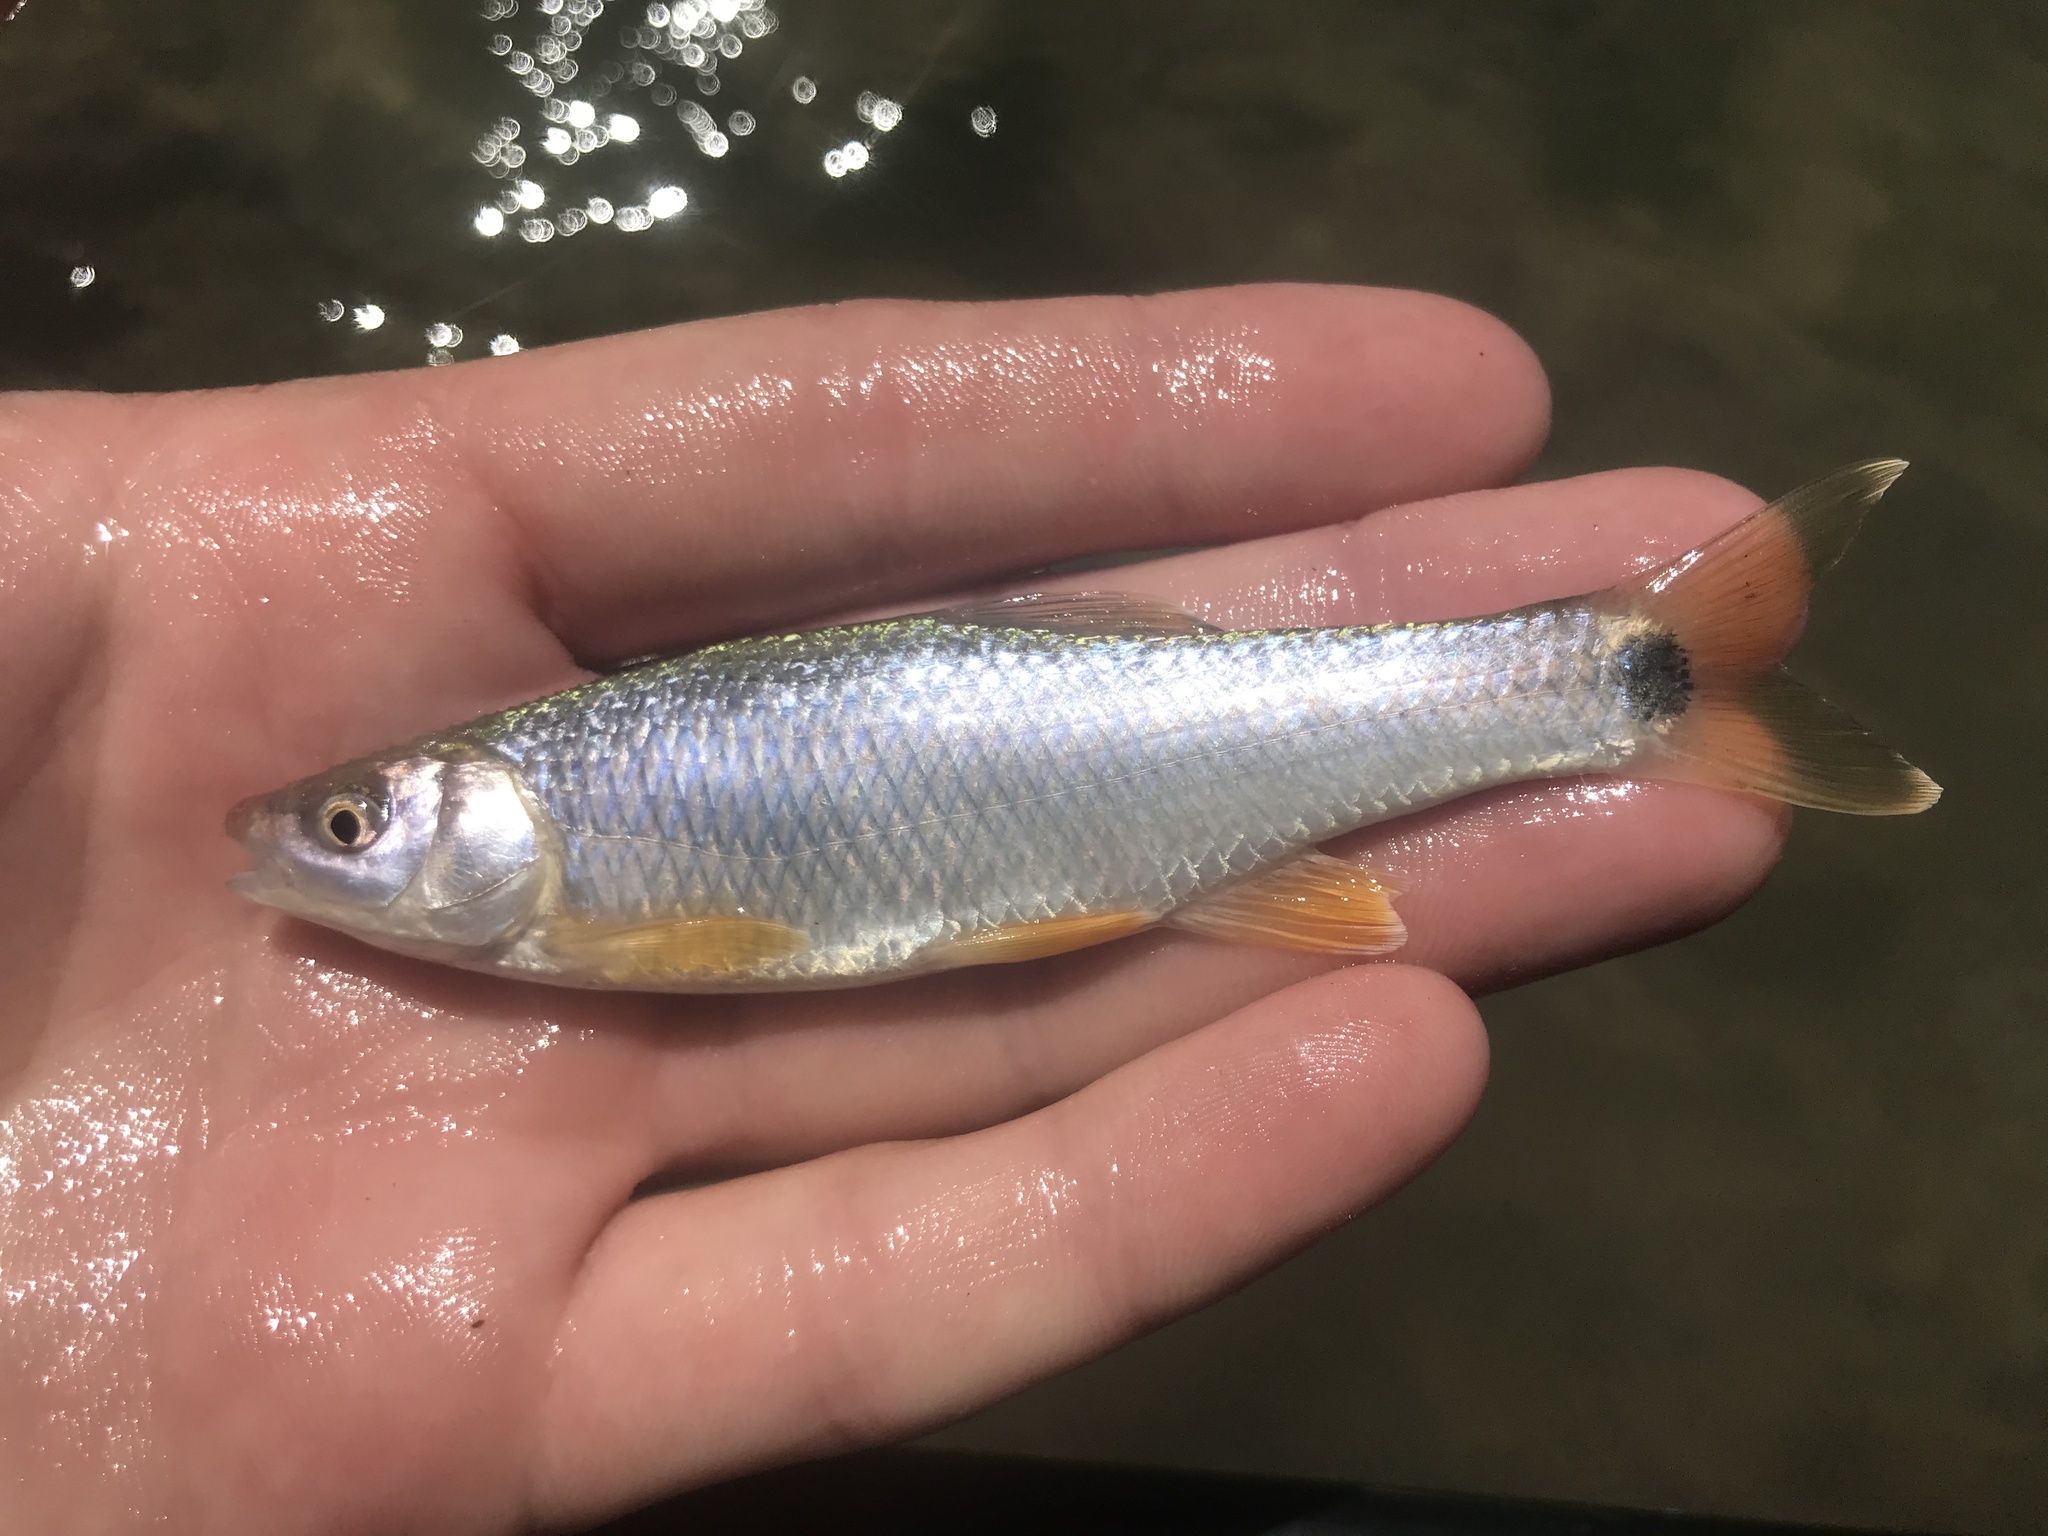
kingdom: Animalia
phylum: Chordata
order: Cypriniformes
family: Cyprinidae
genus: Cyprinella
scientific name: Cyprinella venusta
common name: Blacktail shiner
